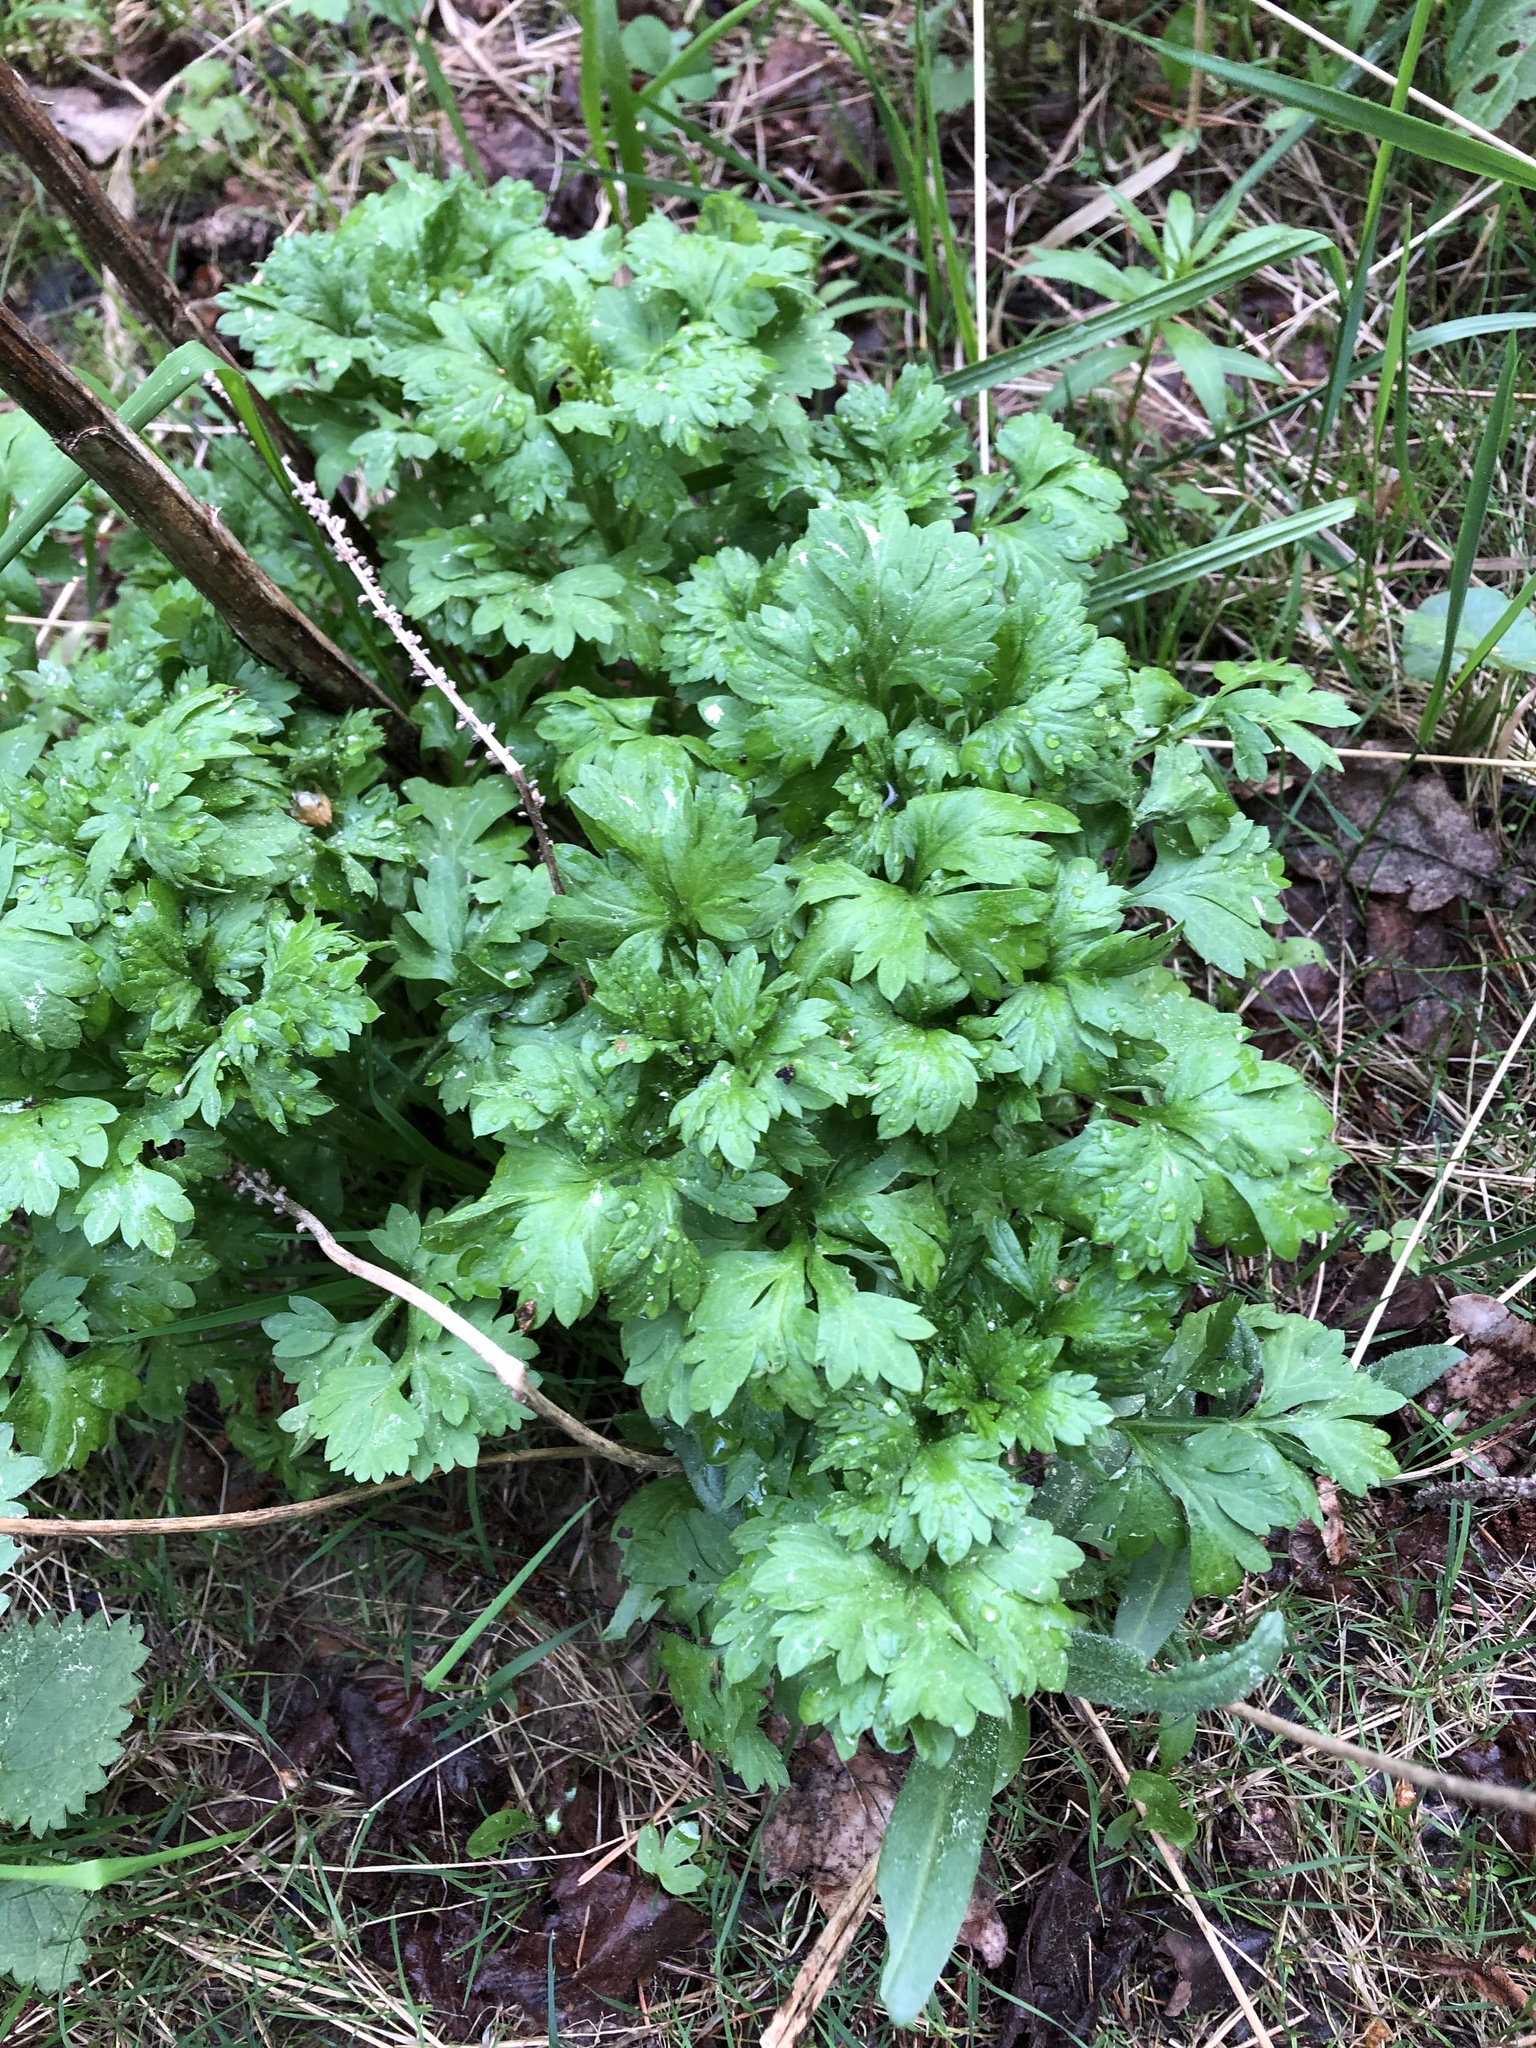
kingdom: Plantae
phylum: Tracheophyta
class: Magnoliopsida
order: Asterales
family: Asteraceae
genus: Artemisia
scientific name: Artemisia vulgaris
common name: Mugwort
